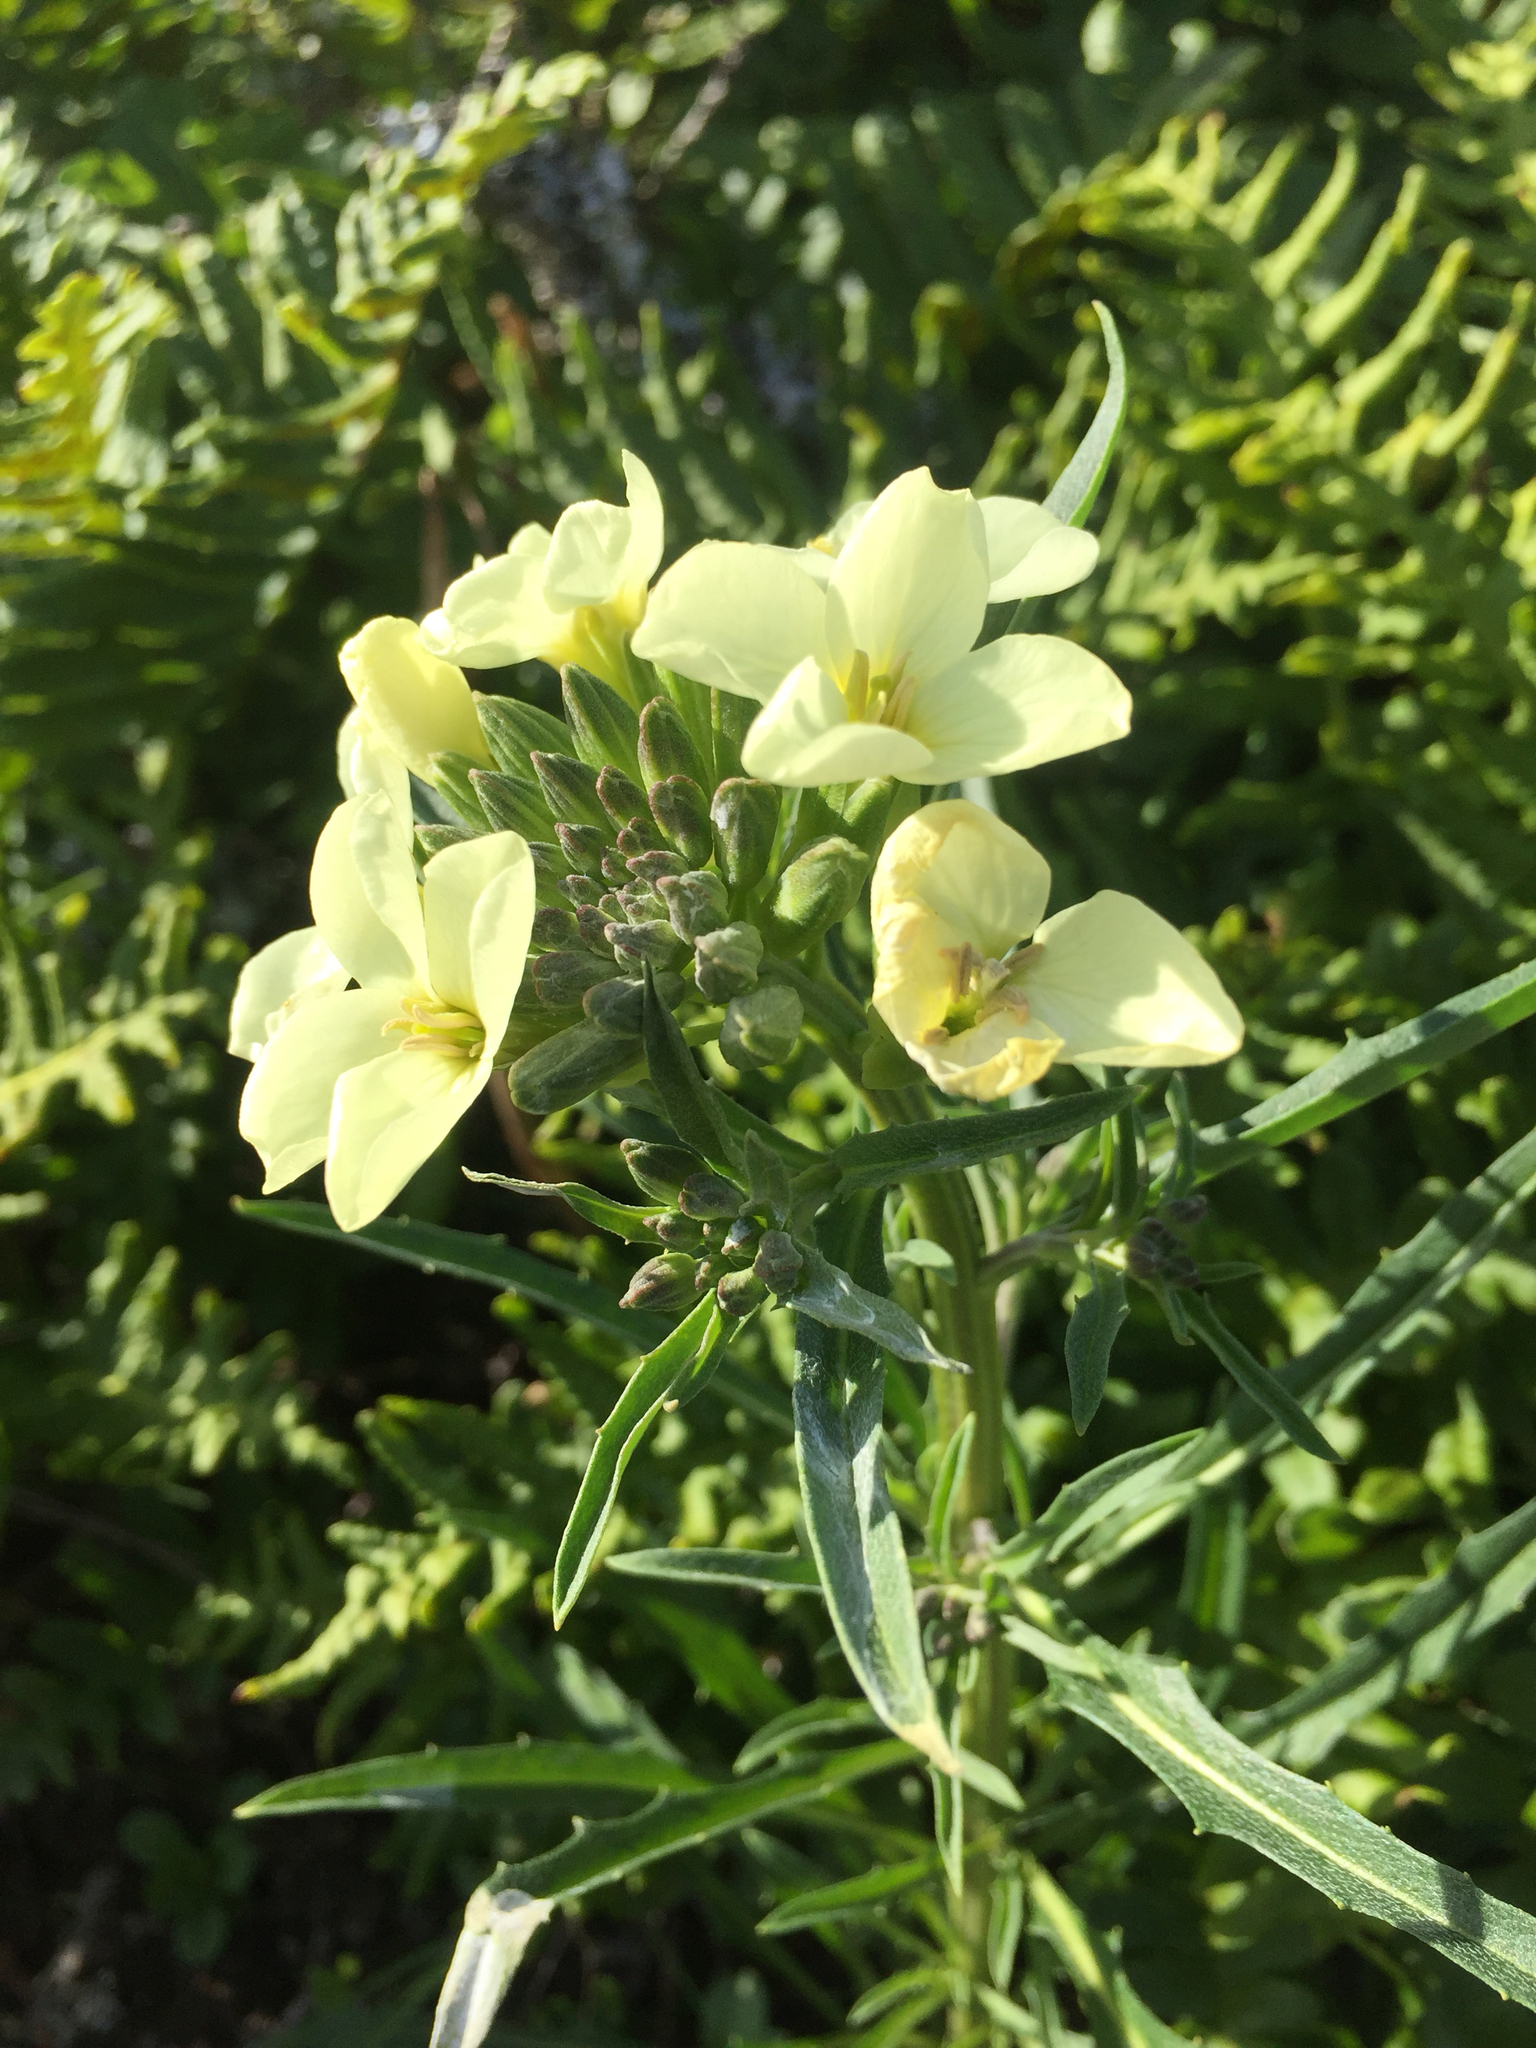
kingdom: Plantae
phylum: Tracheophyta
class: Magnoliopsida
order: Brassicales
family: Brassicaceae
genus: Erysimum
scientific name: Erysimum franciscanum
